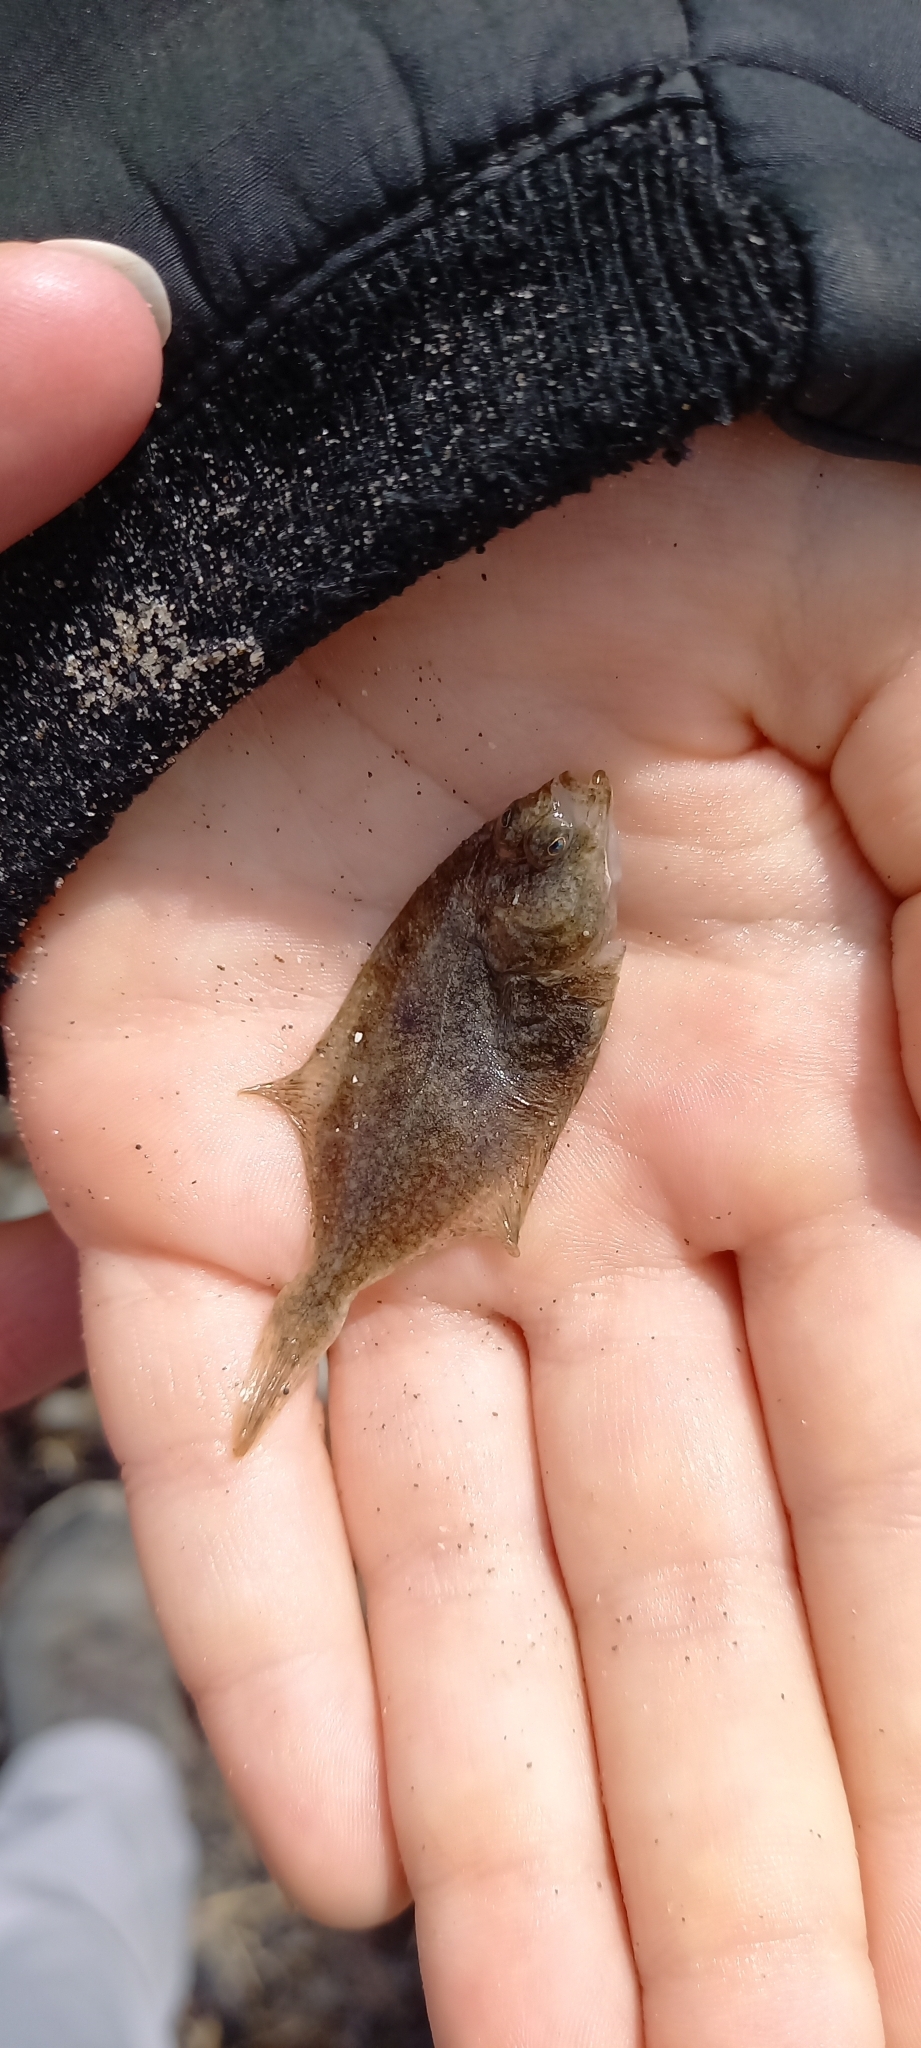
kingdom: Animalia
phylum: Chordata
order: Pleuronectiformes
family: Pleuronectidae
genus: Platichthys
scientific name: Platichthys flesus
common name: European flounder
